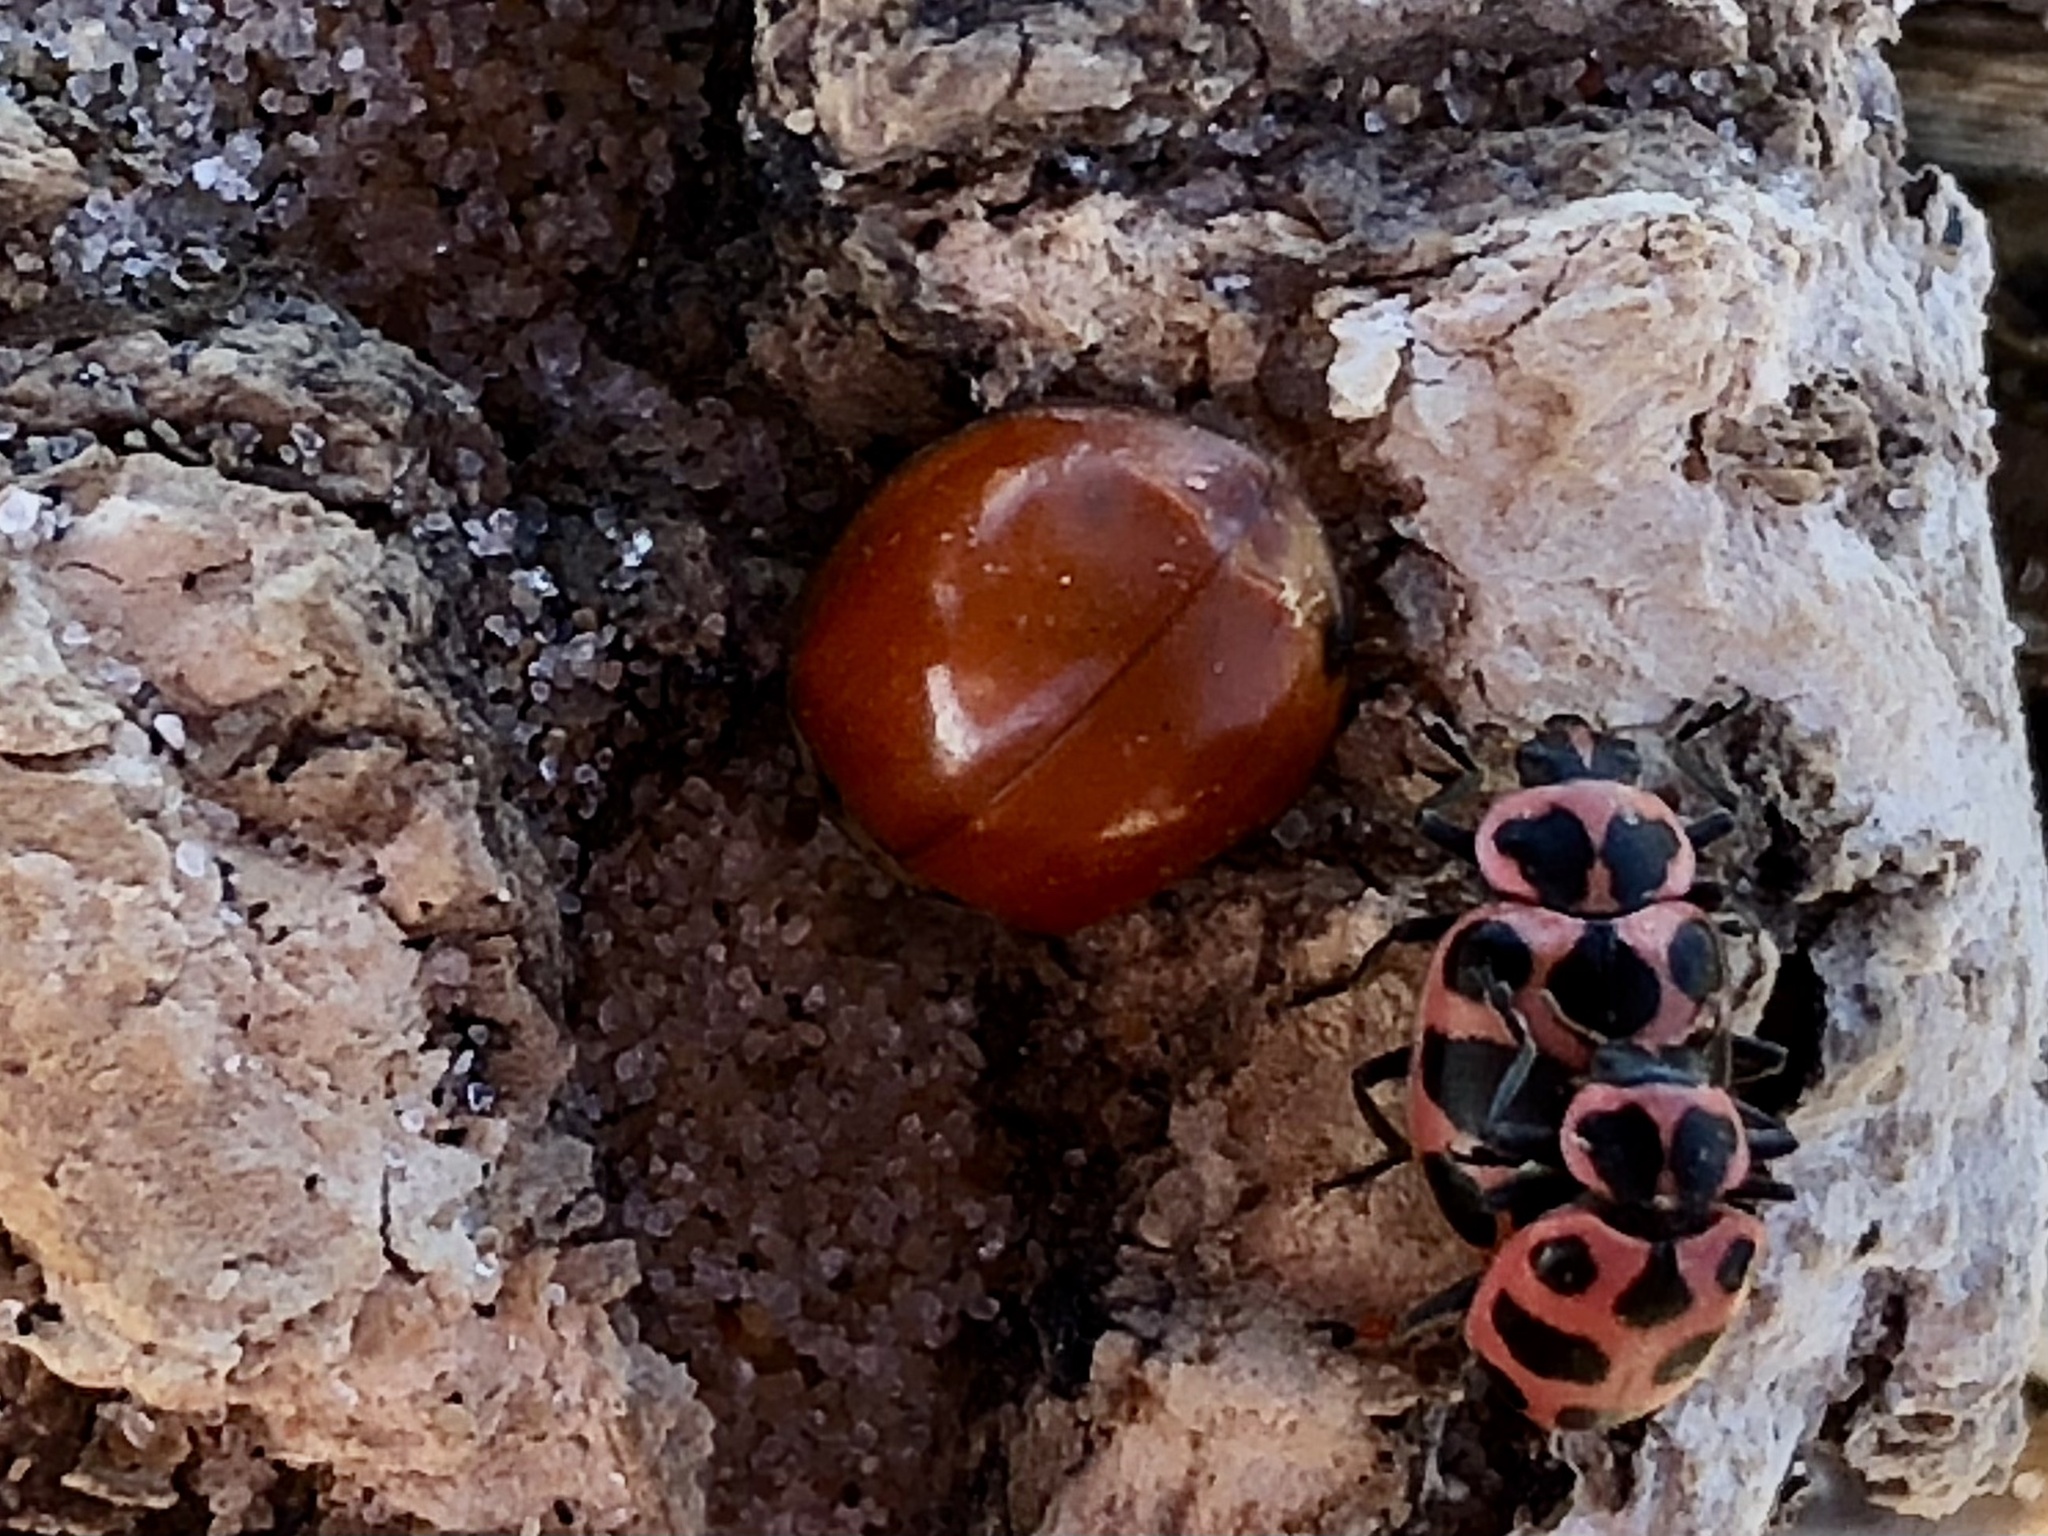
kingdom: Animalia
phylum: Arthropoda
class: Insecta
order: Coleoptera
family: Coccinellidae
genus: Harmonia
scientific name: Harmonia axyridis
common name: Harlequin ladybird
